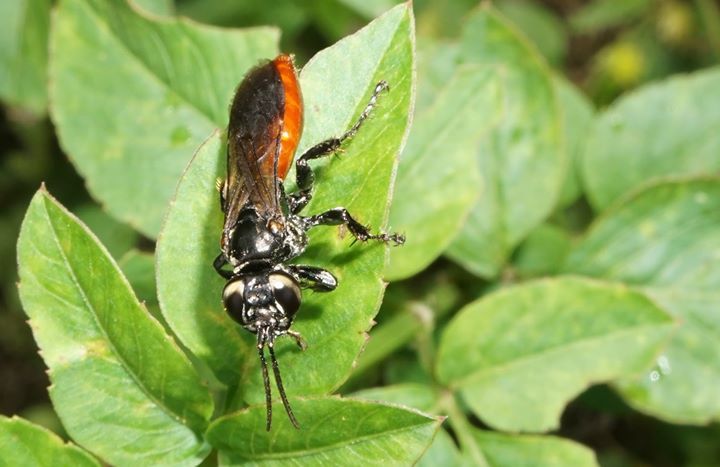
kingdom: Animalia
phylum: Arthropoda
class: Insecta
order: Hymenoptera
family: Crabronidae
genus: Larra
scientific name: Larra bicolor
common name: Wasp
